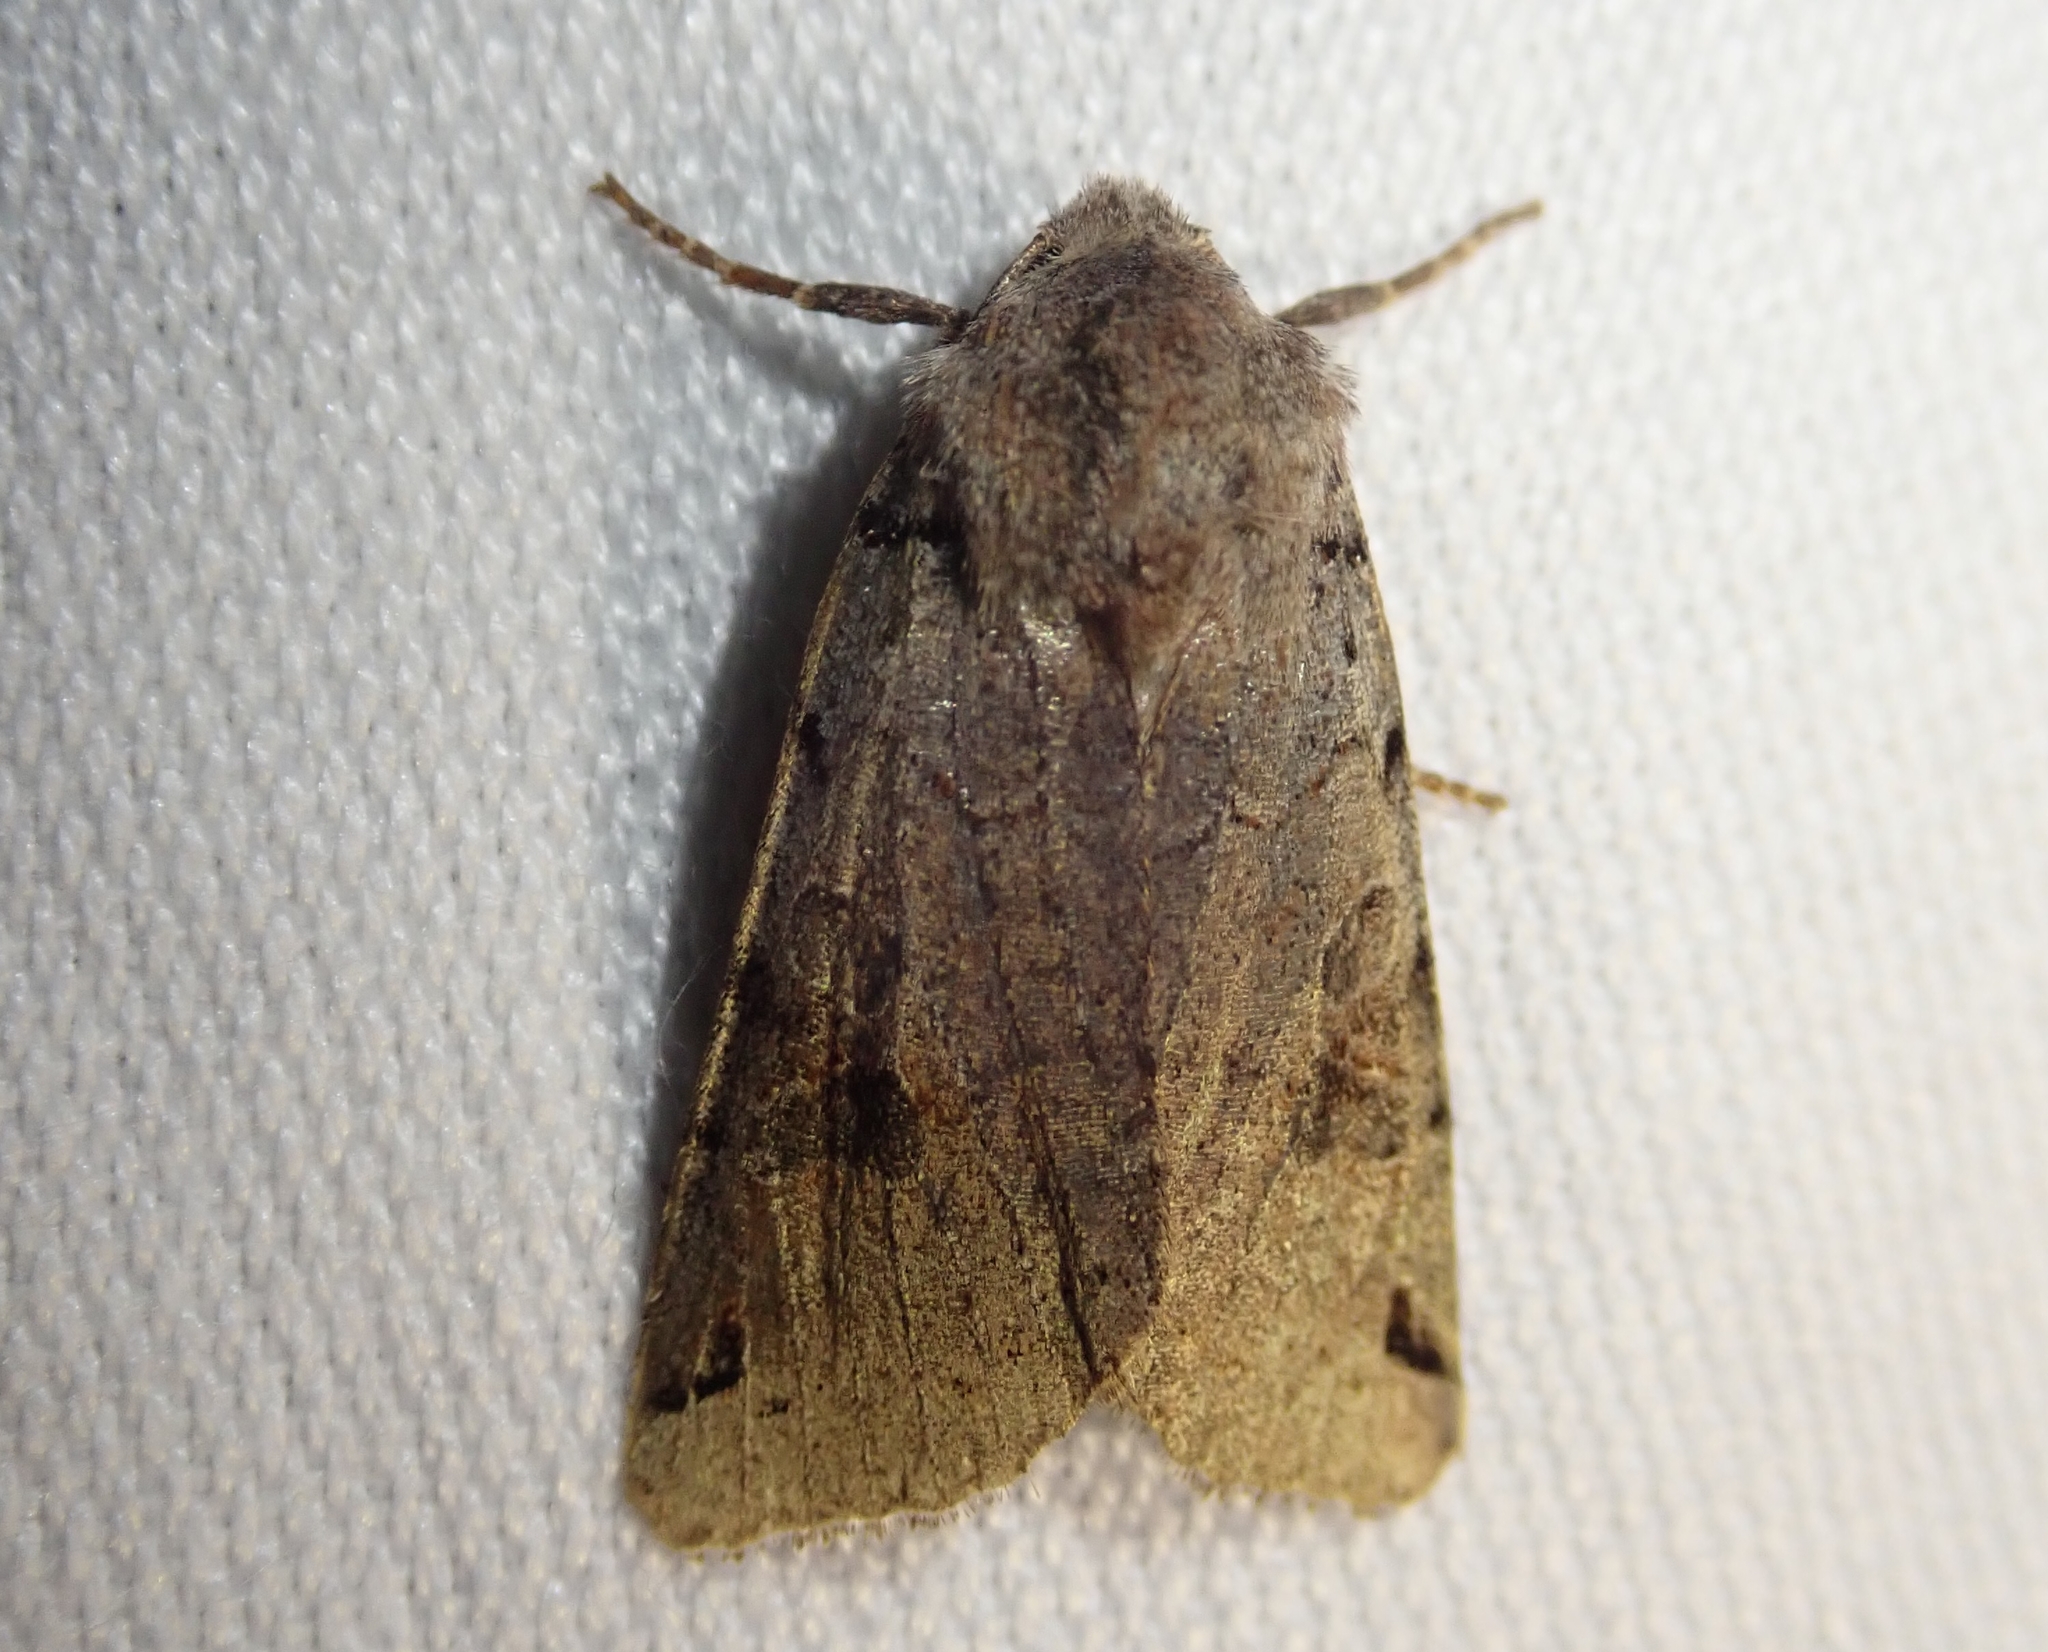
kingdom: Animalia
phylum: Arthropoda
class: Insecta
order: Lepidoptera
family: Noctuidae
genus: Agrochola
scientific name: Agrochola litura
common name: Brown-spot pinion
